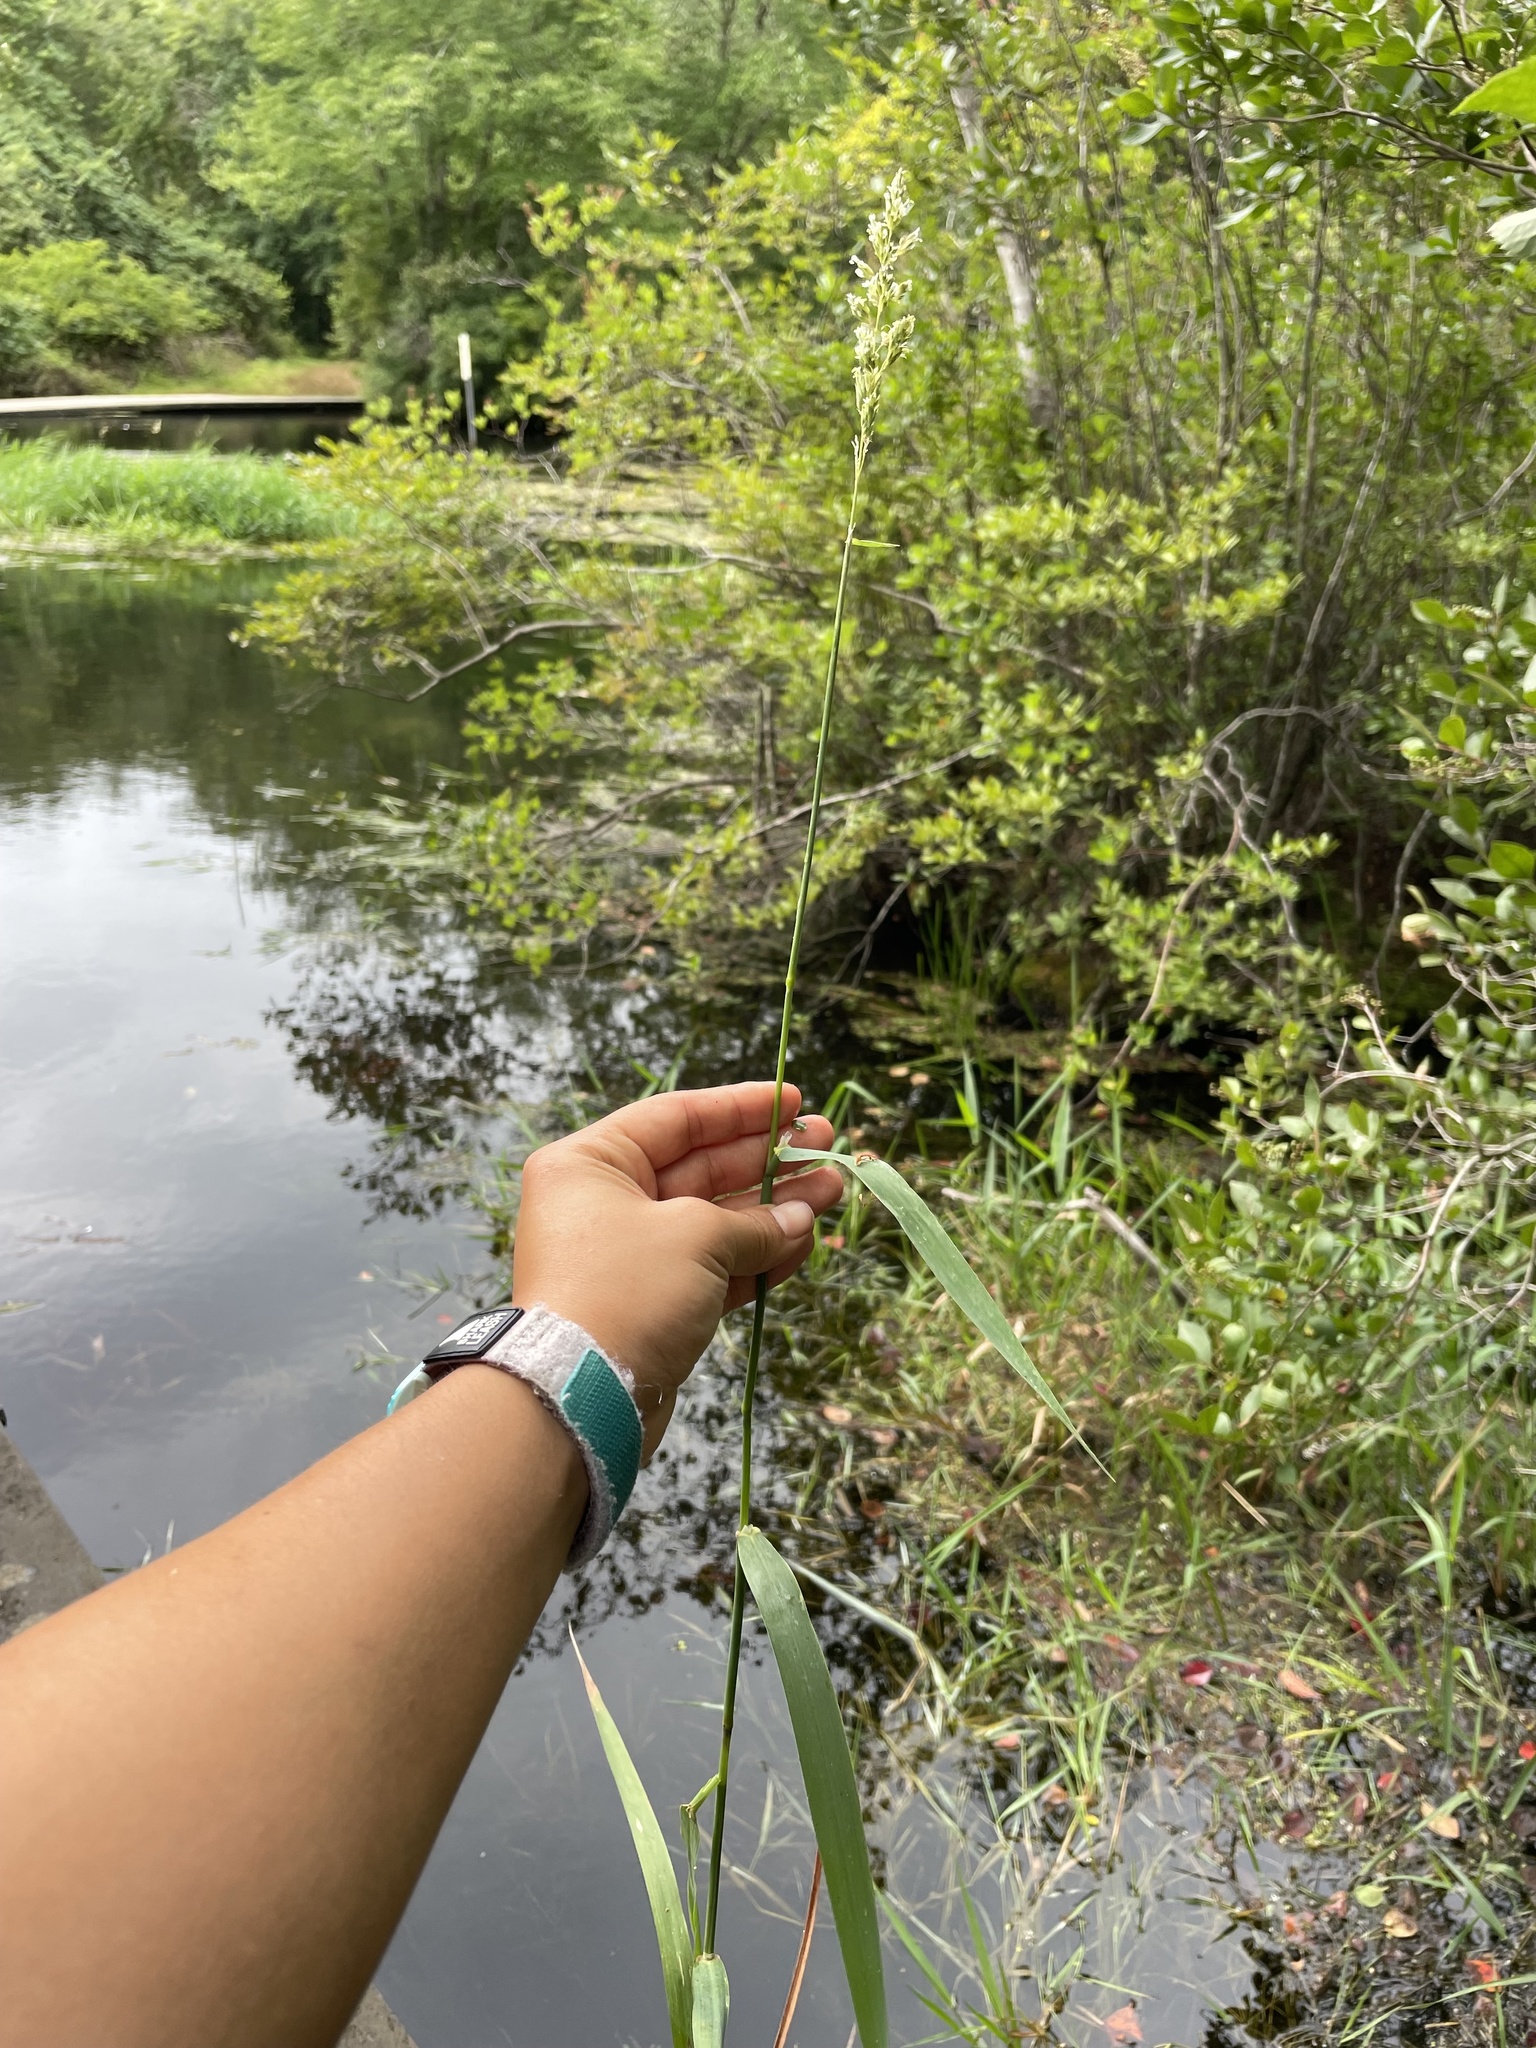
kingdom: Plantae
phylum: Tracheophyta
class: Liliopsida
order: Poales
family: Poaceae
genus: Phalaris
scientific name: Phalaris arundinacea
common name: Reed canary-grass
